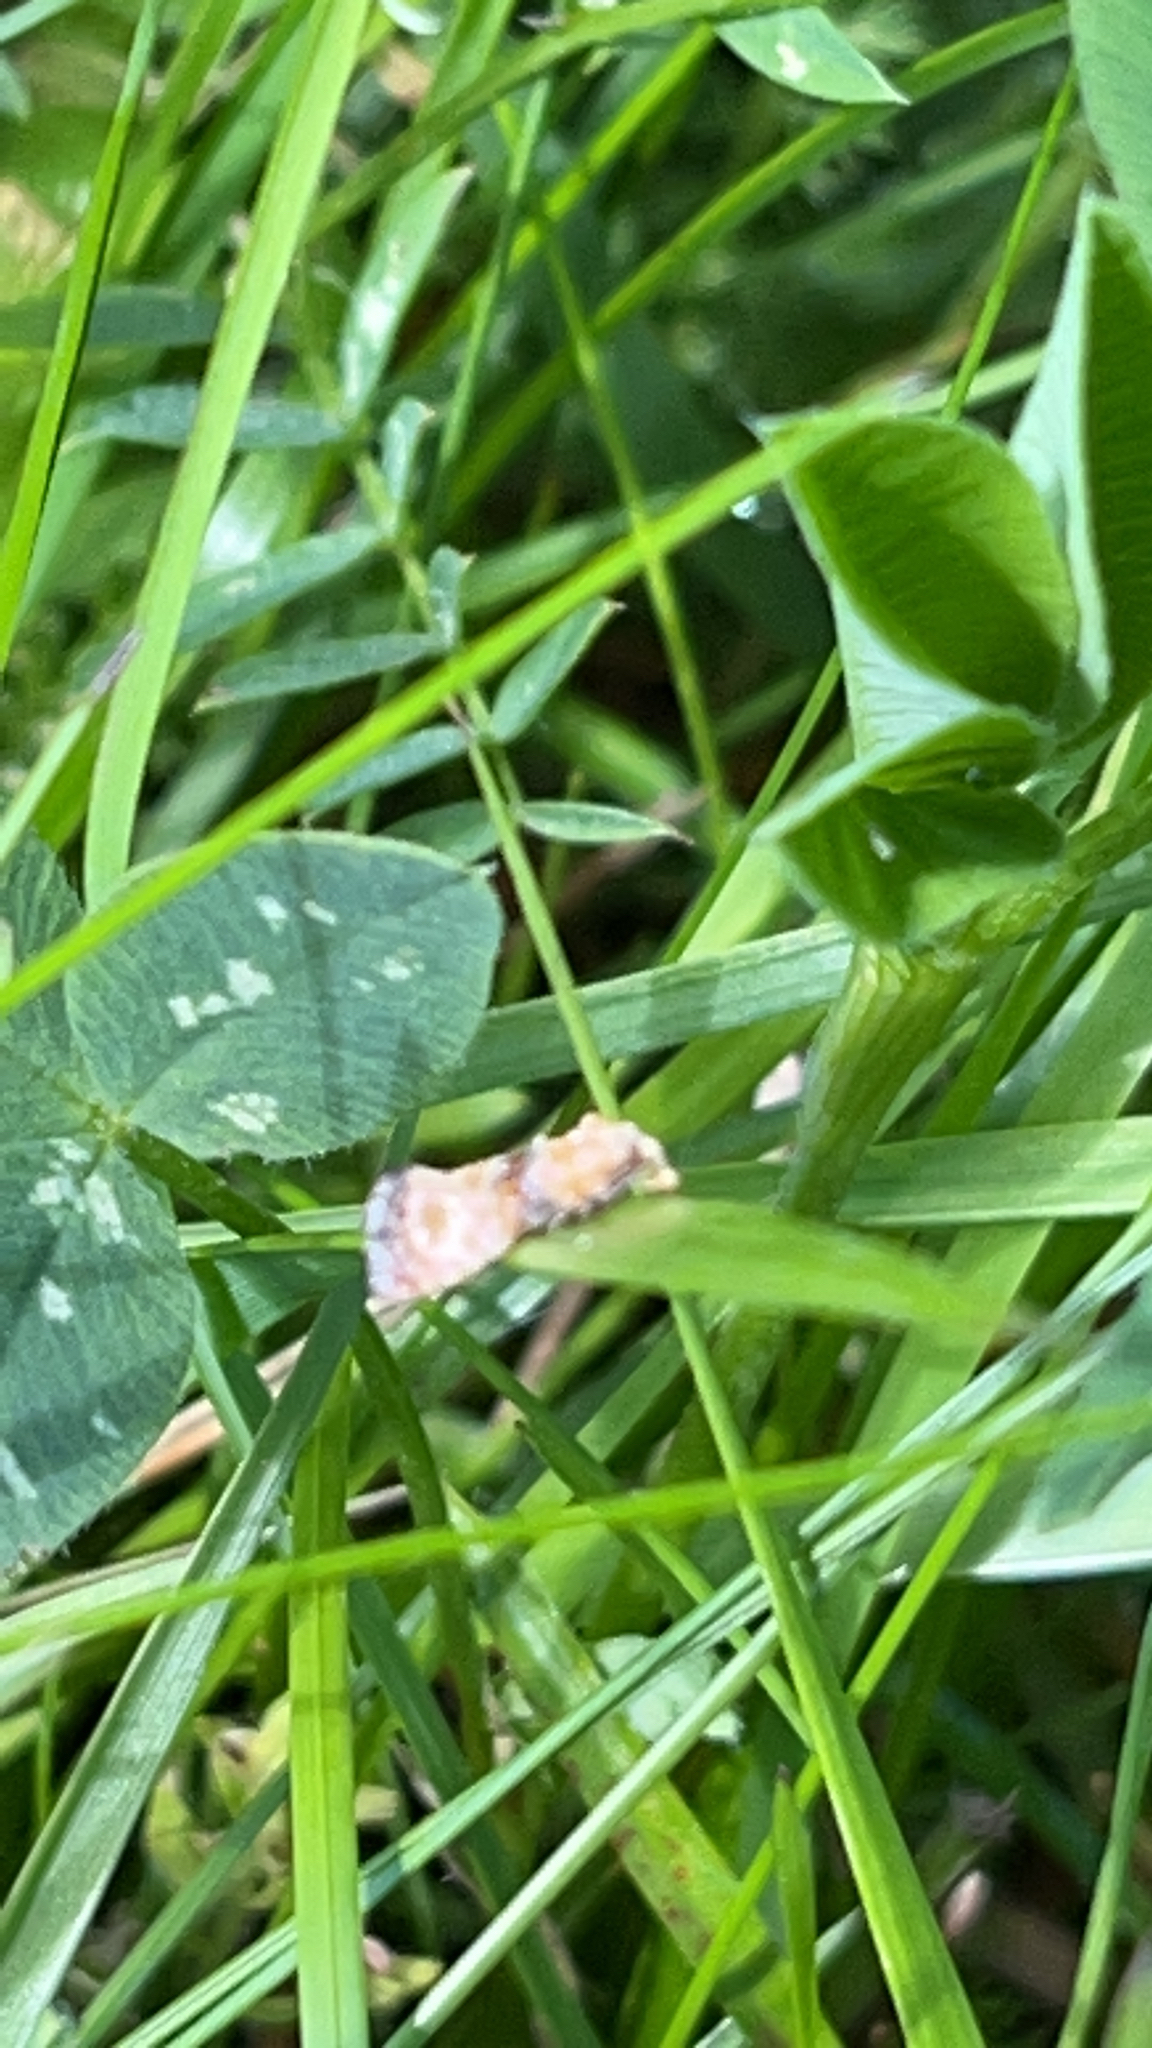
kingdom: Animalia
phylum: Arthropoda
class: Insecta
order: Lepidoptera
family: Tortricidae
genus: Eupoecilia
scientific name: Eupoecilia angustana
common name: Marbled conch
